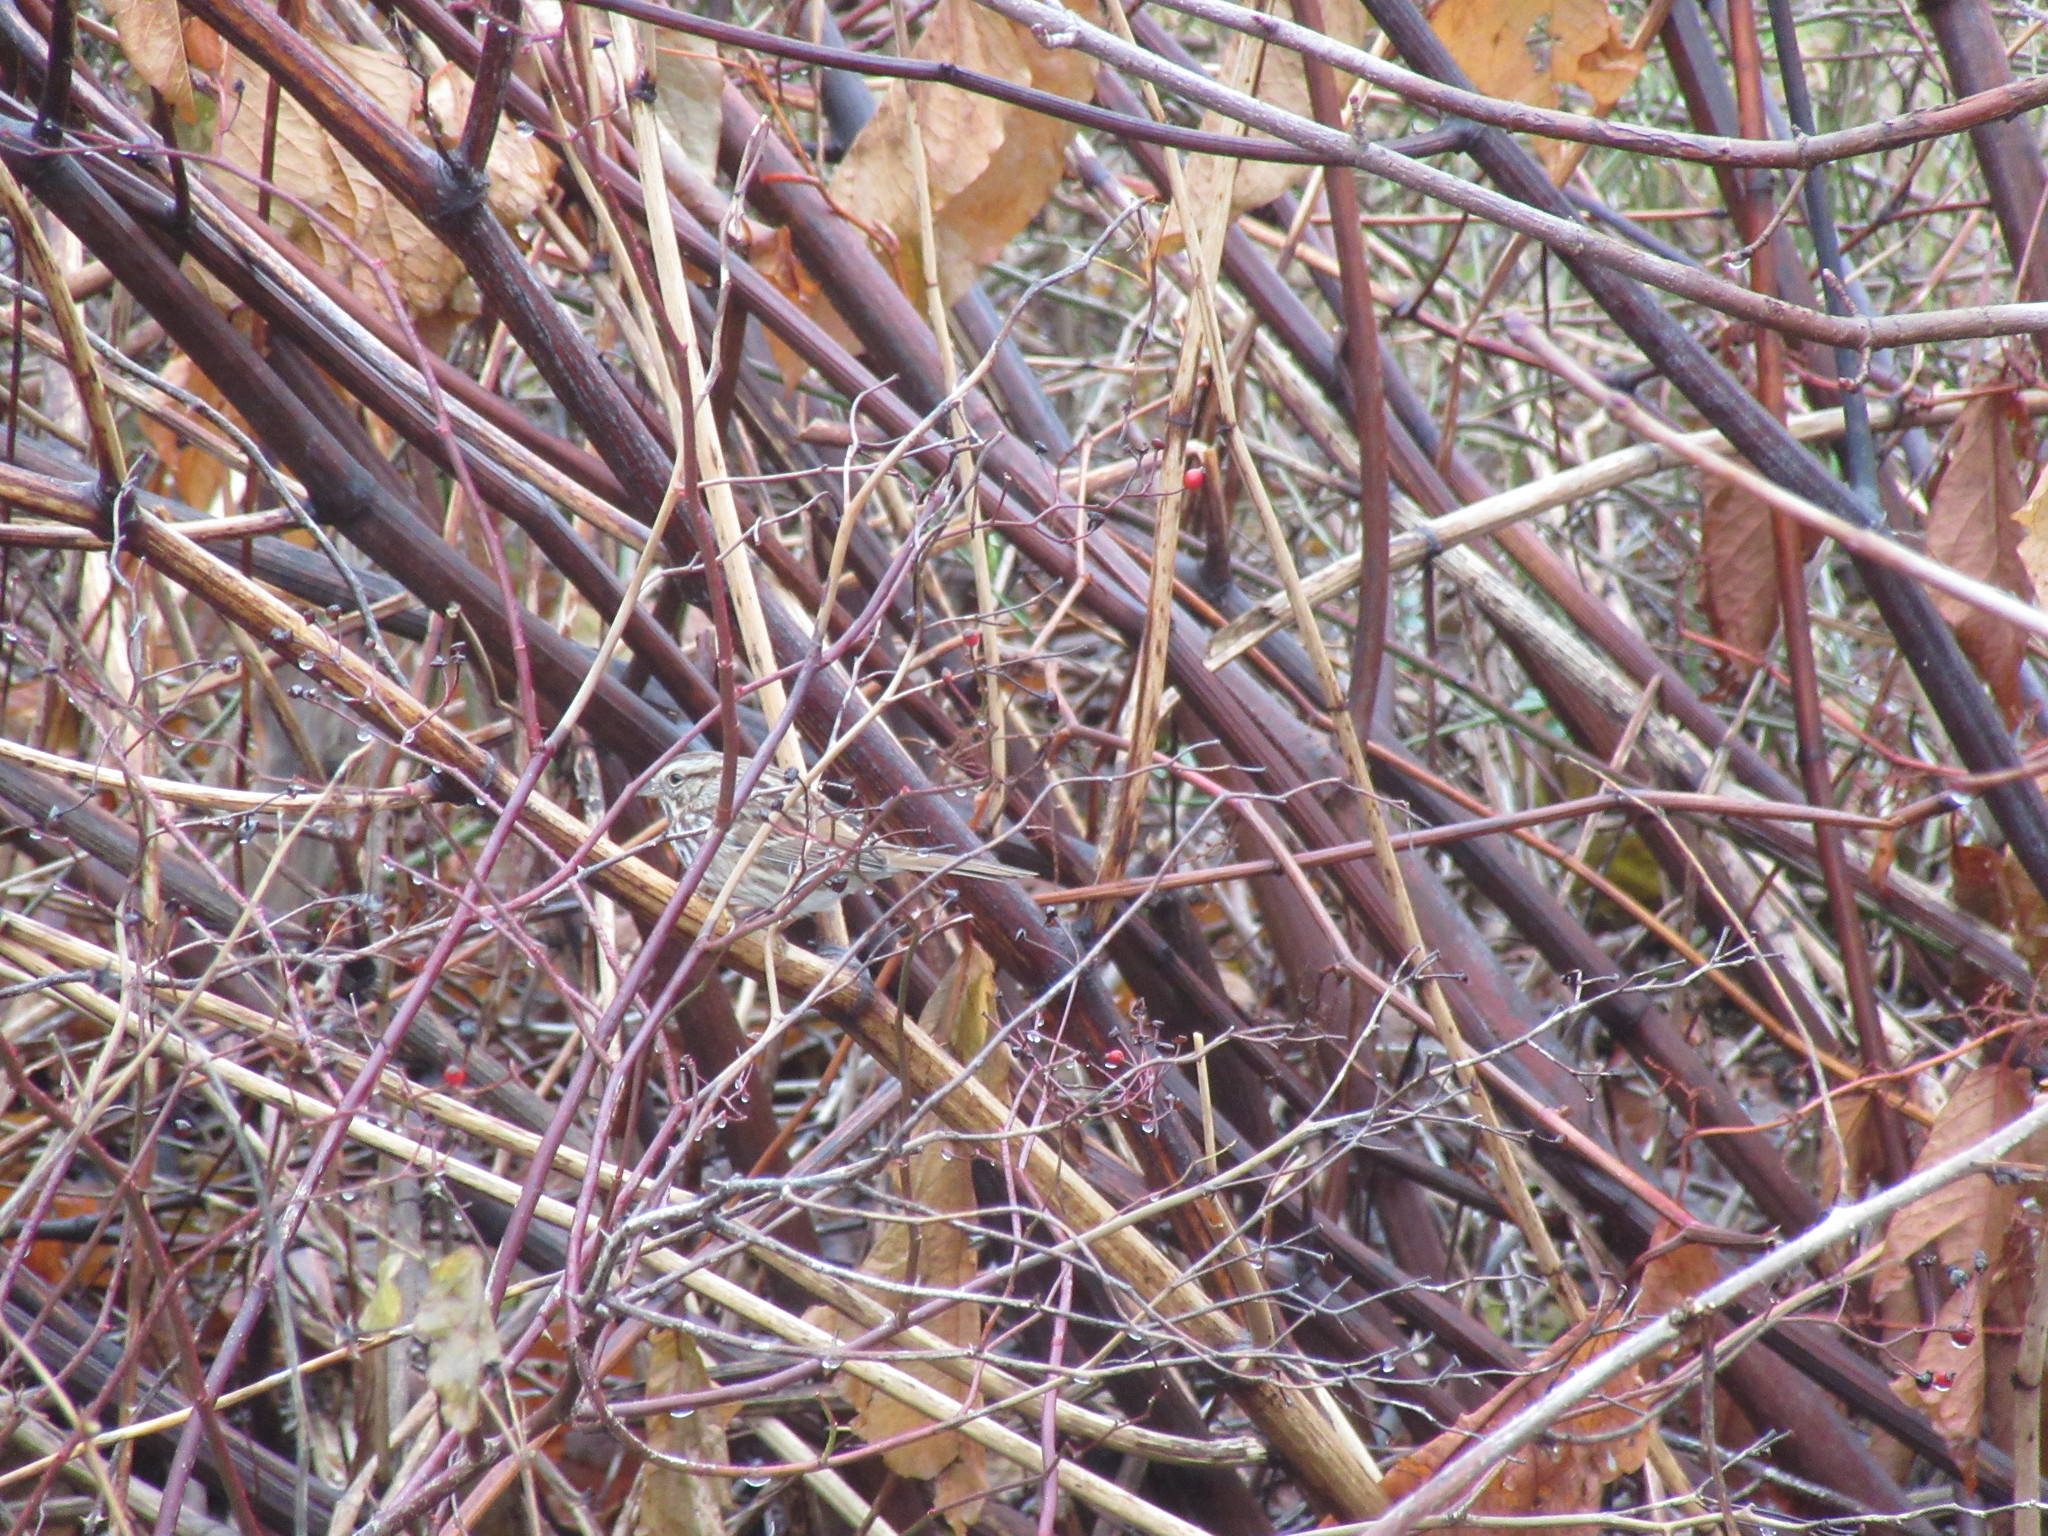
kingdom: Animalia
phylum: Chordata
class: Aves
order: Passeriformes
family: Passerellidae
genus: Melospiza
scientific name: Melospiza melodia
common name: Song sparrow
